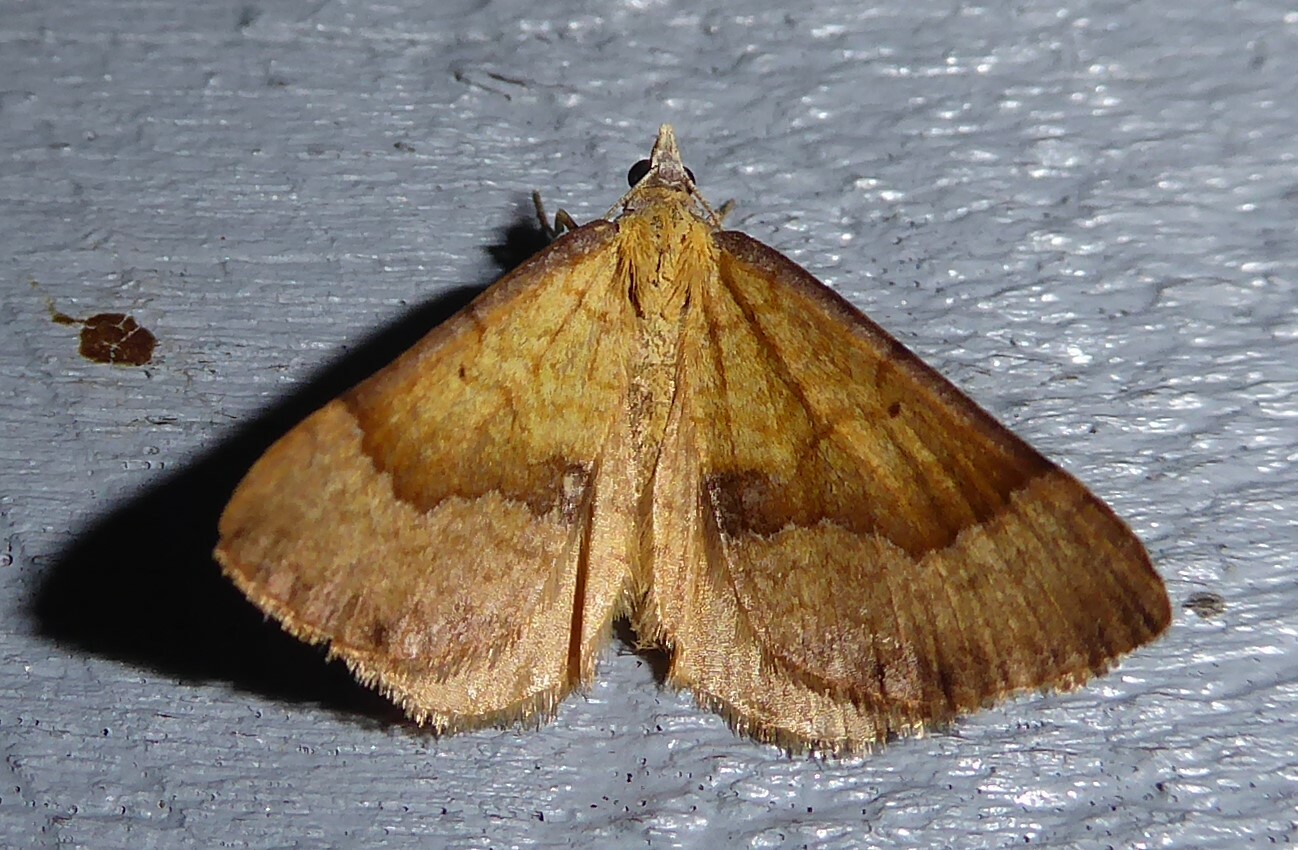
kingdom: Animalia
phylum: Arthropoda
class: Insecta
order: Lepidoptera
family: Geometridae
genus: Anachloris
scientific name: Anachloris subochraria
